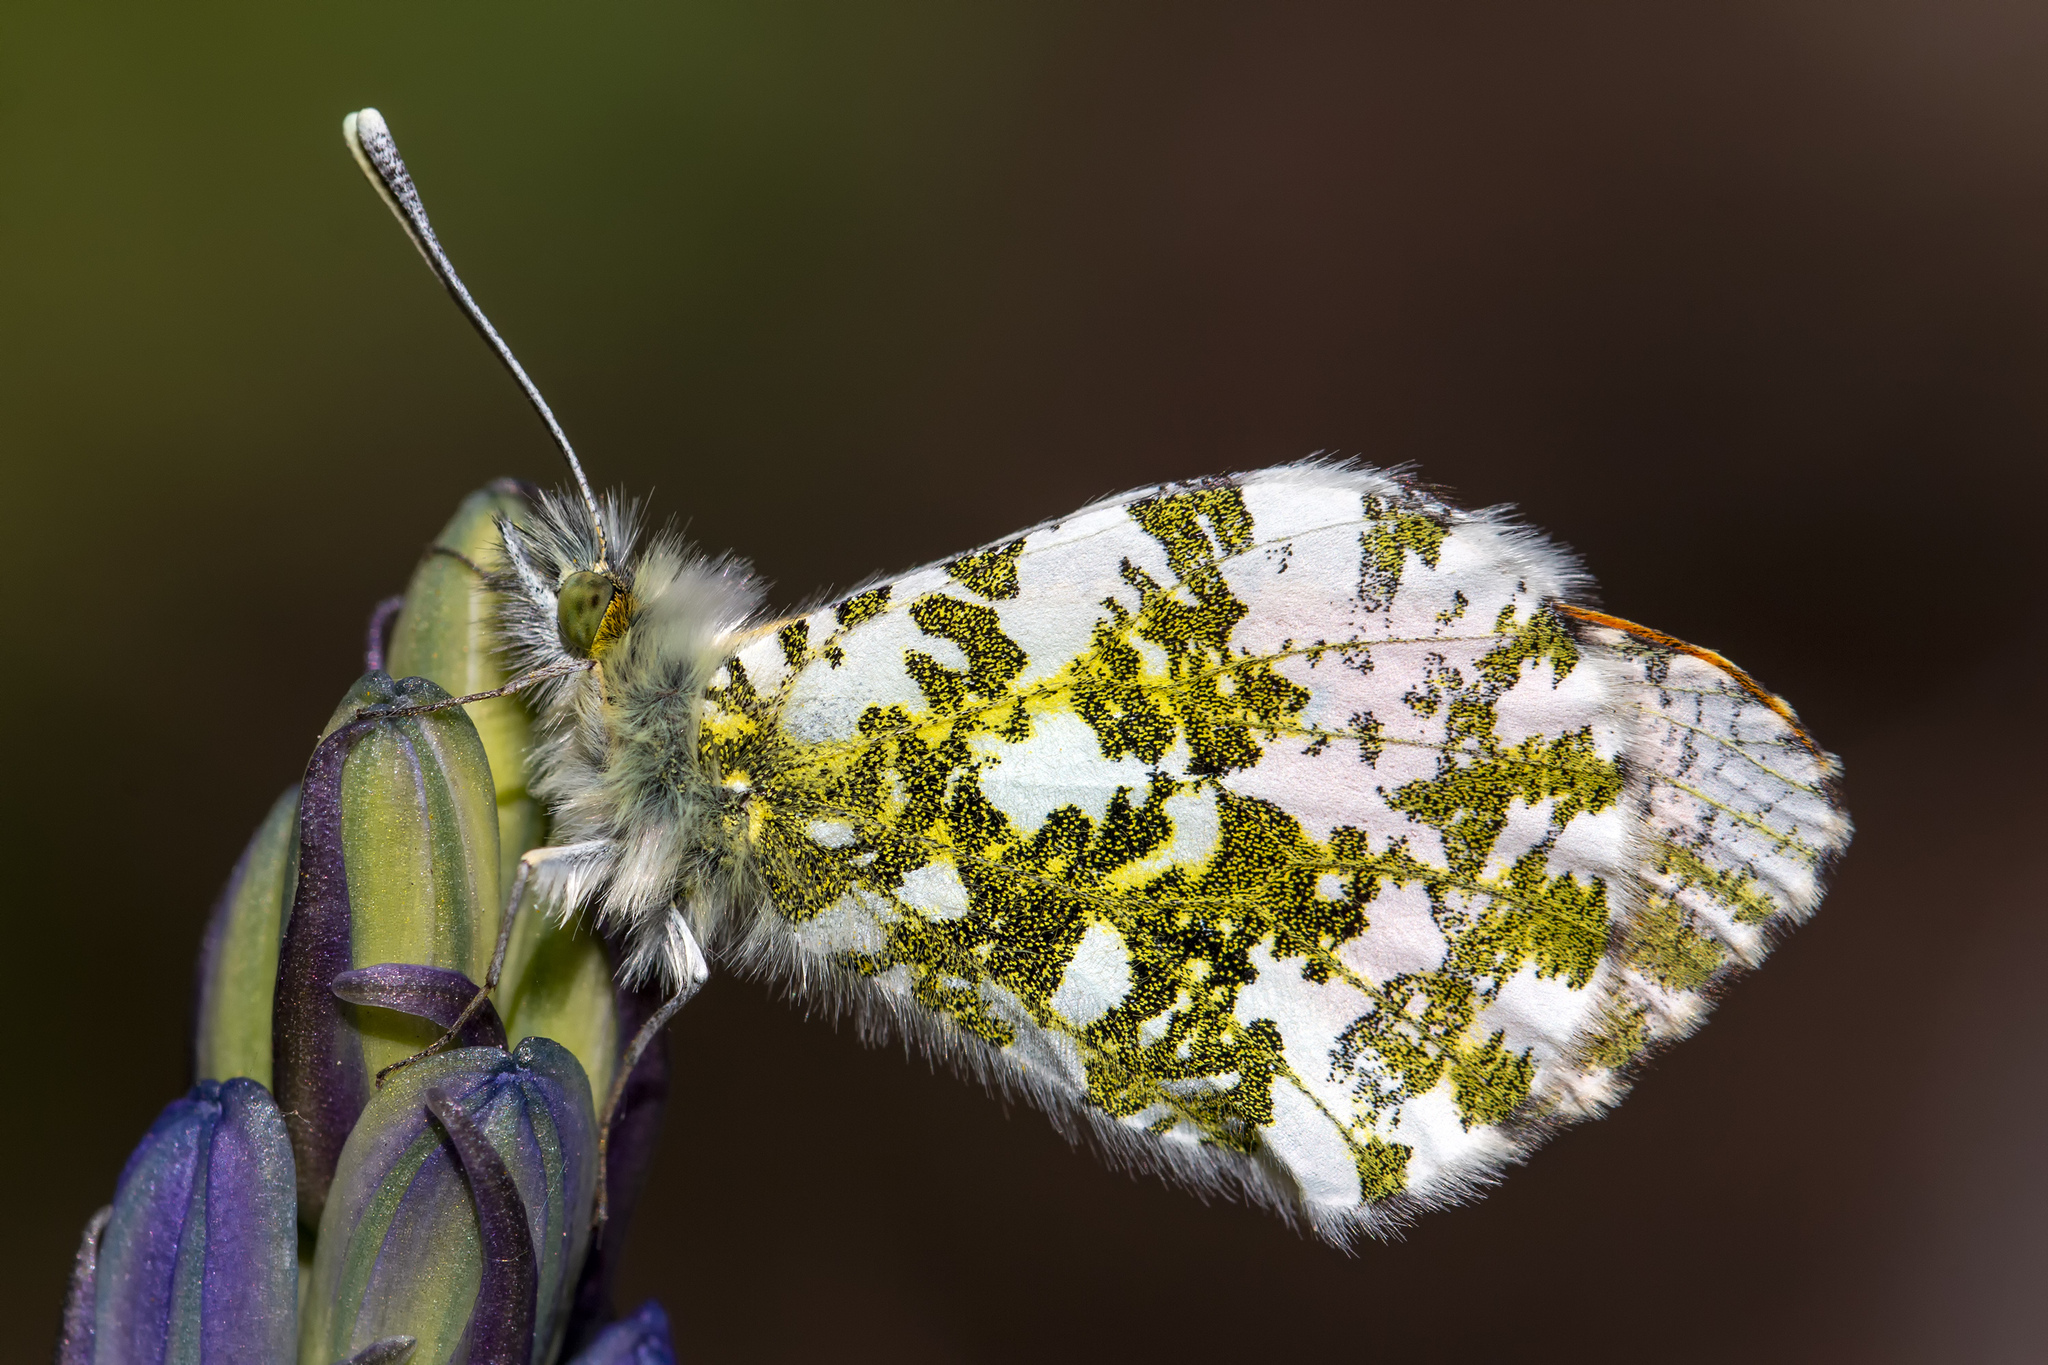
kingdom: Animalia
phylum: Arthropoda
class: Insecta
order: Lepidoptera
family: Pieridae
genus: Anthocharis
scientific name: Anthocharis cardamines
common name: Orange-tip
